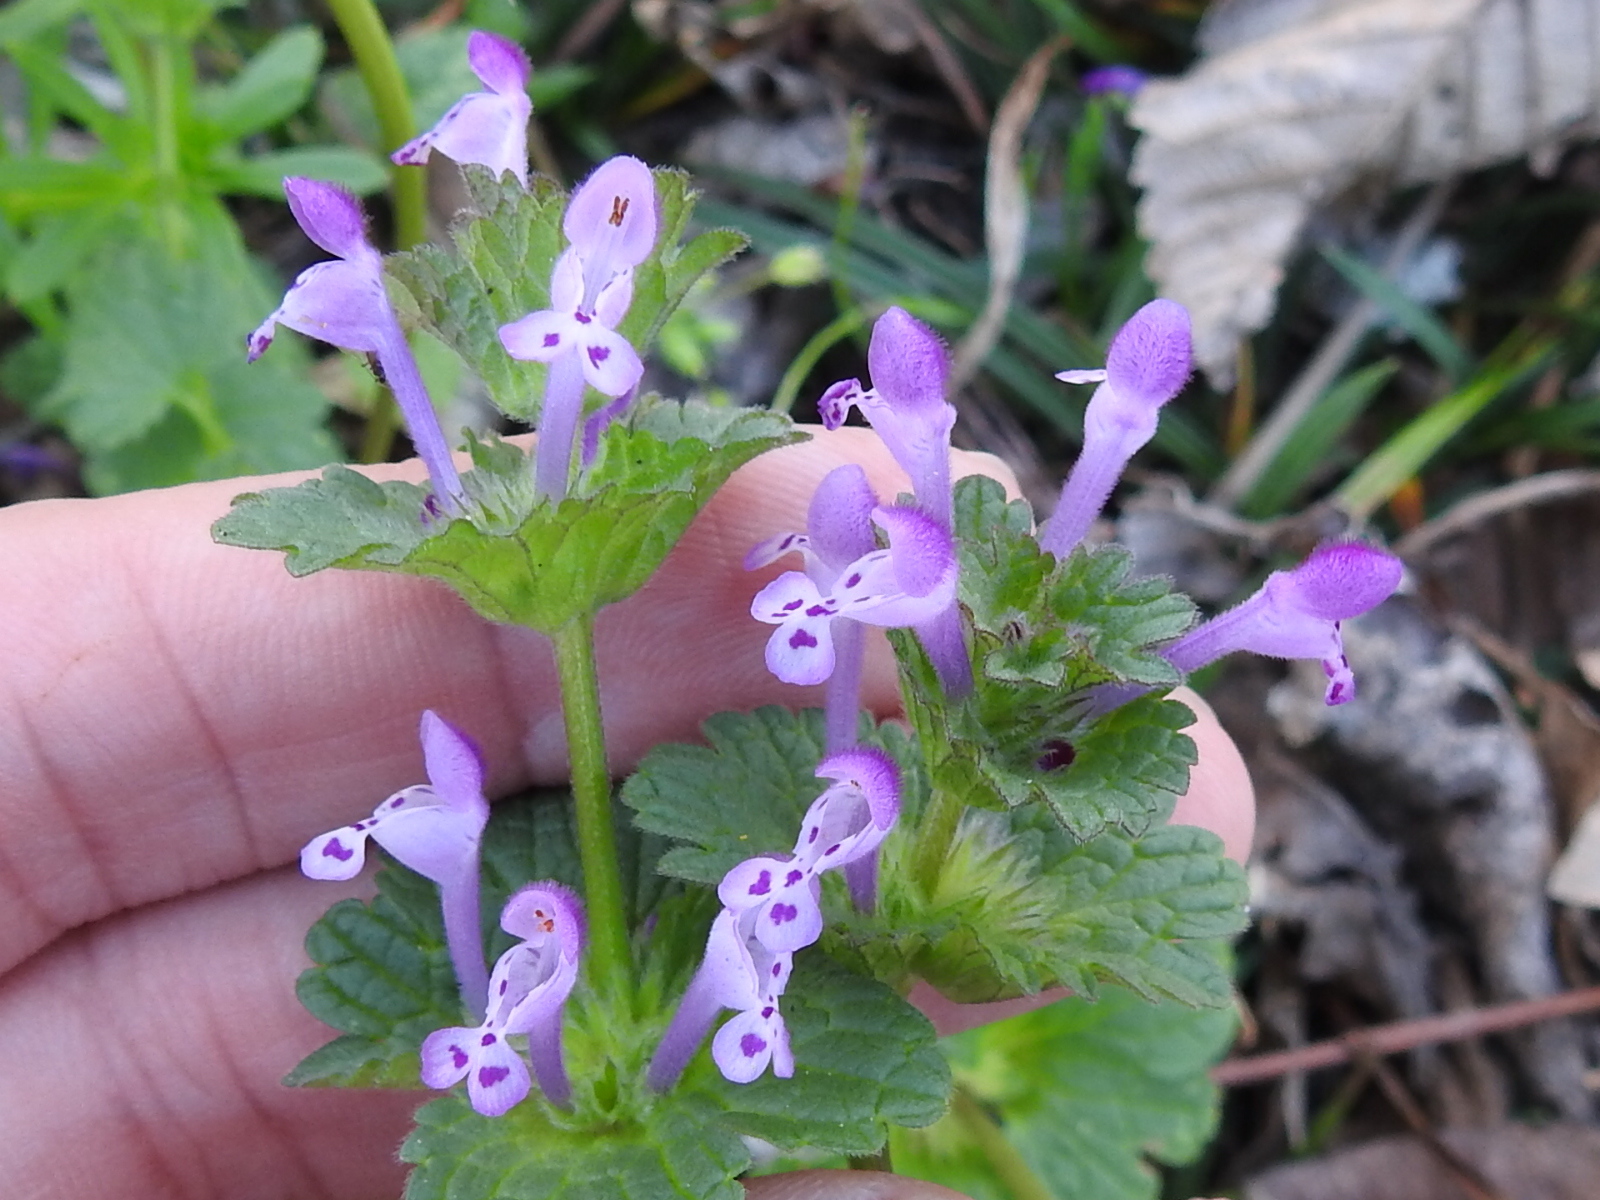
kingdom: Plantae
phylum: Tracheophyta
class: Magnoliopsida
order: Lamiales
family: Lamiaceae
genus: Lamium
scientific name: Lamium amplexicaule
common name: Henbit dead-nettle
